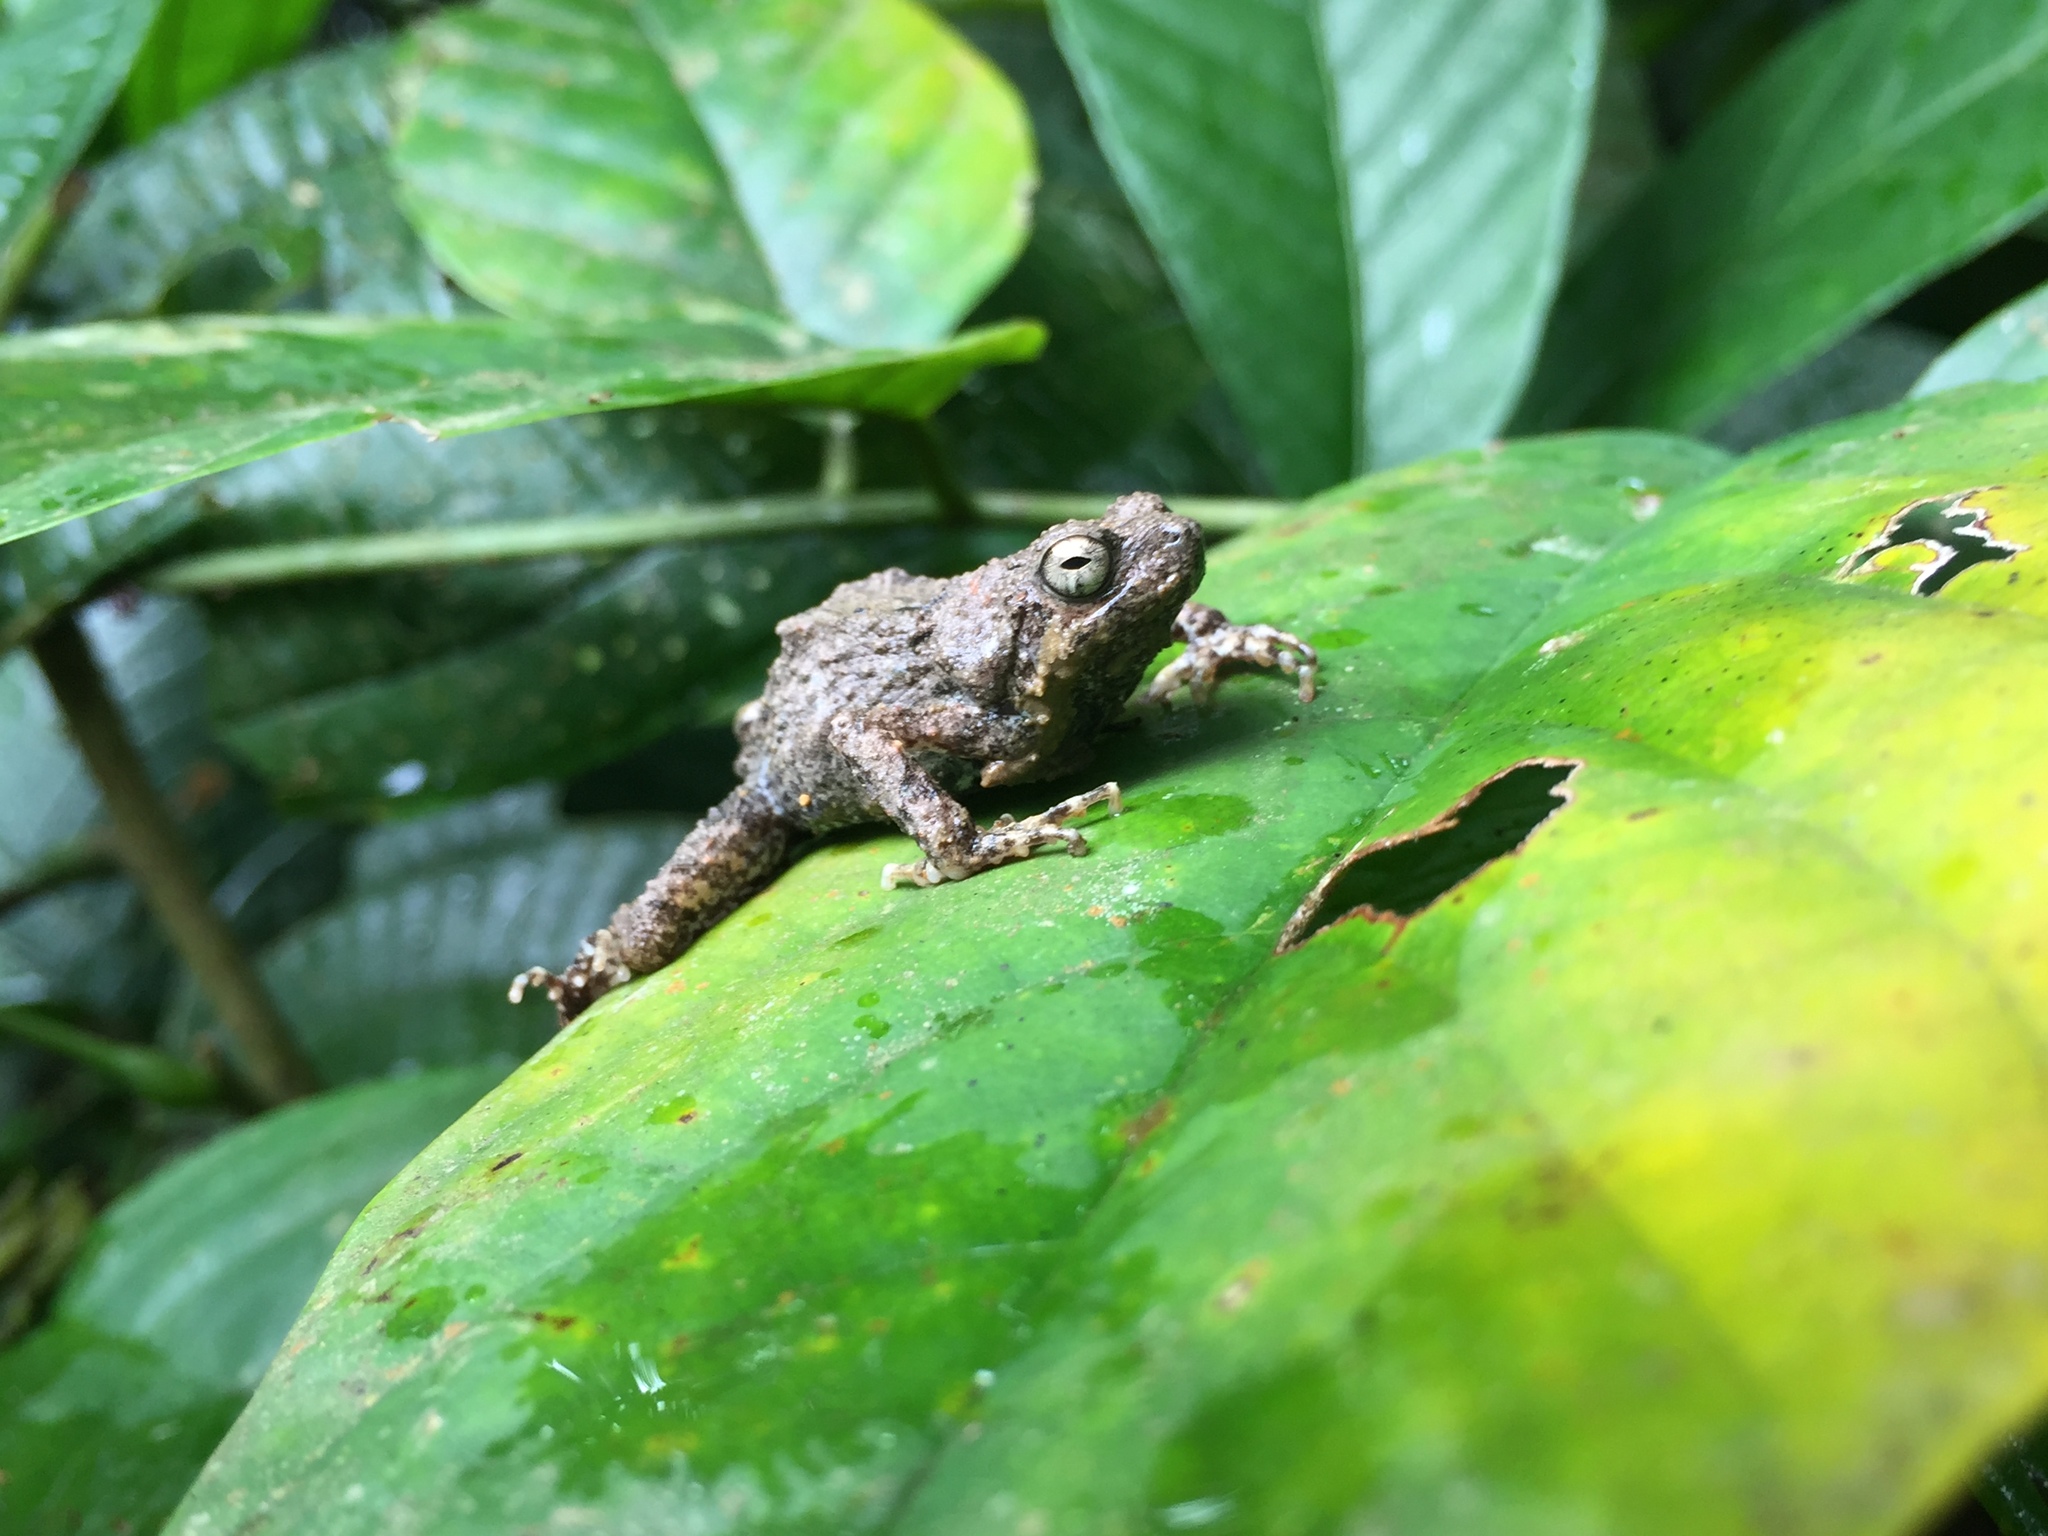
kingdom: Animalia
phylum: Chordata
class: Amphibia
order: Anura
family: Leptodactylidae
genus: Engystomops
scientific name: Engystomops pustulosus
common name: Tungara frog
